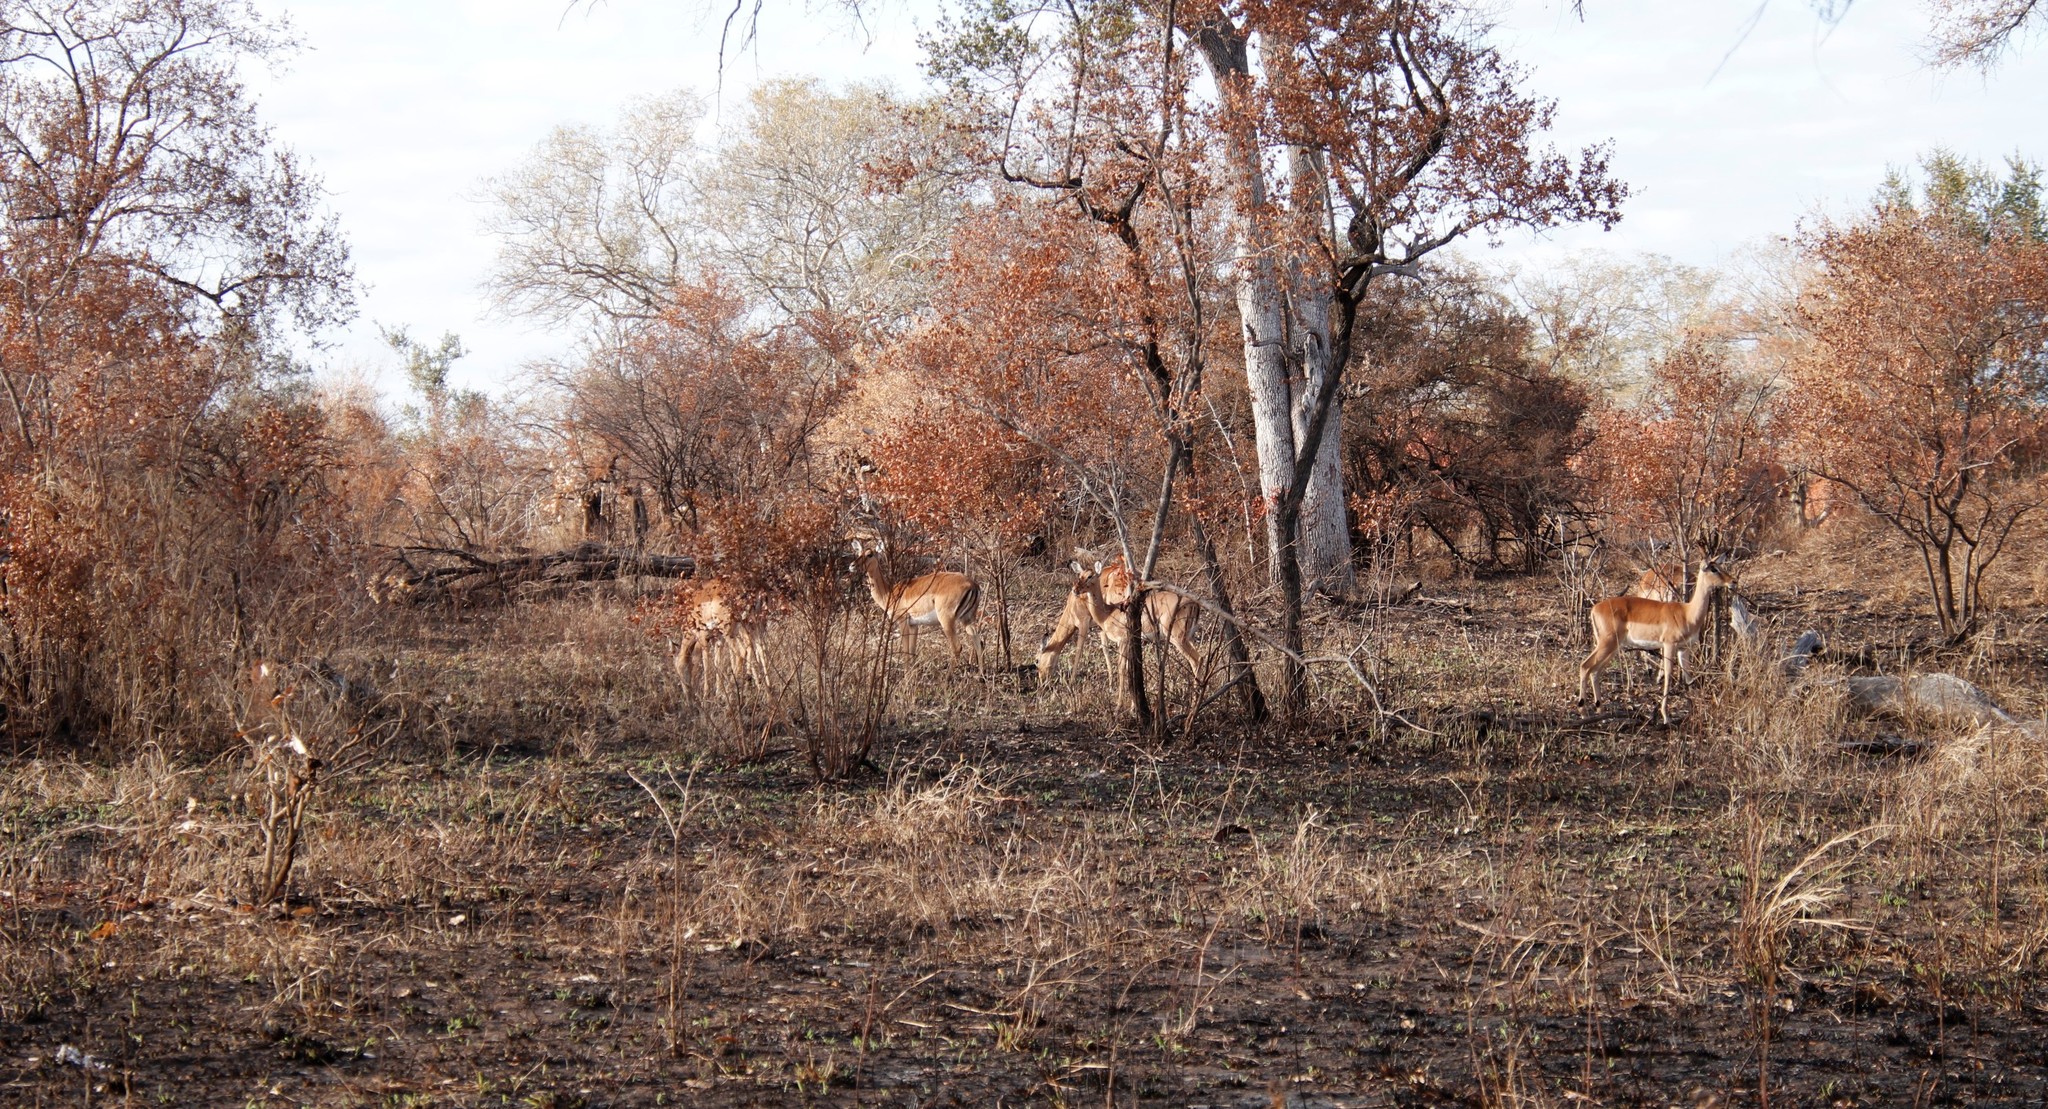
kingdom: Animalia
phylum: Chordata
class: Mammalia
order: Artiodactyla
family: Bovidae
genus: Aepyceros
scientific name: Aepyceros melampus
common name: Impala
